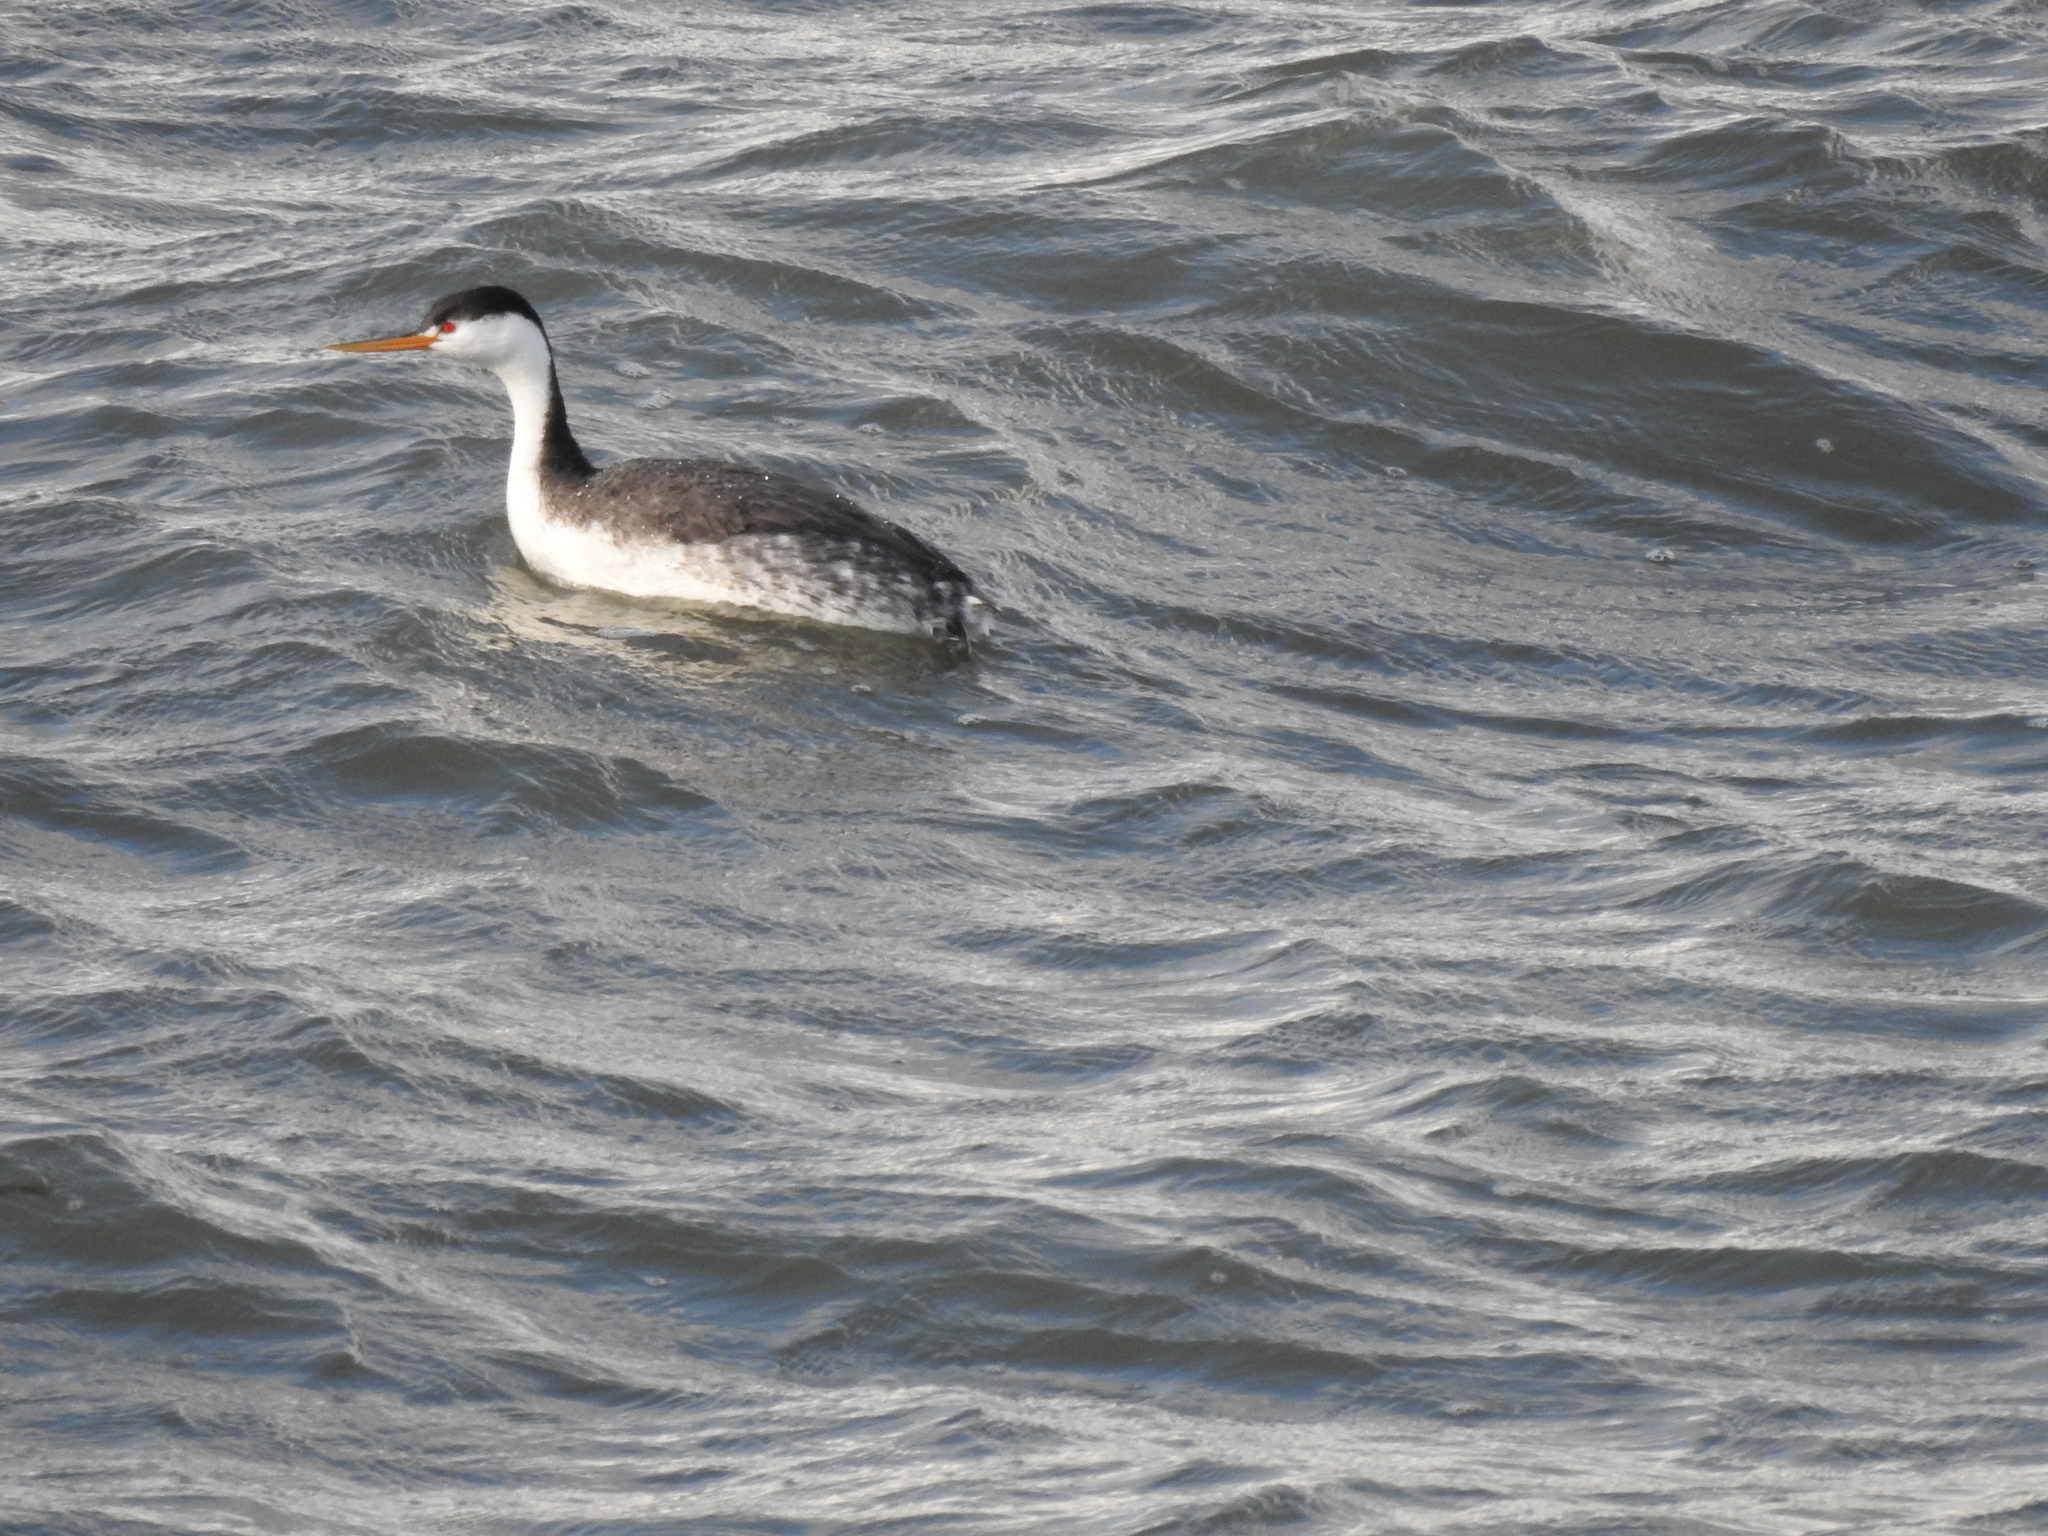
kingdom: Animalia
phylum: Chordata
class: Aves
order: Podicipediformes
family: Podicipedidae
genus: Aechmophorus
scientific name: Aechmophorus clarkii
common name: Clark's grebe
